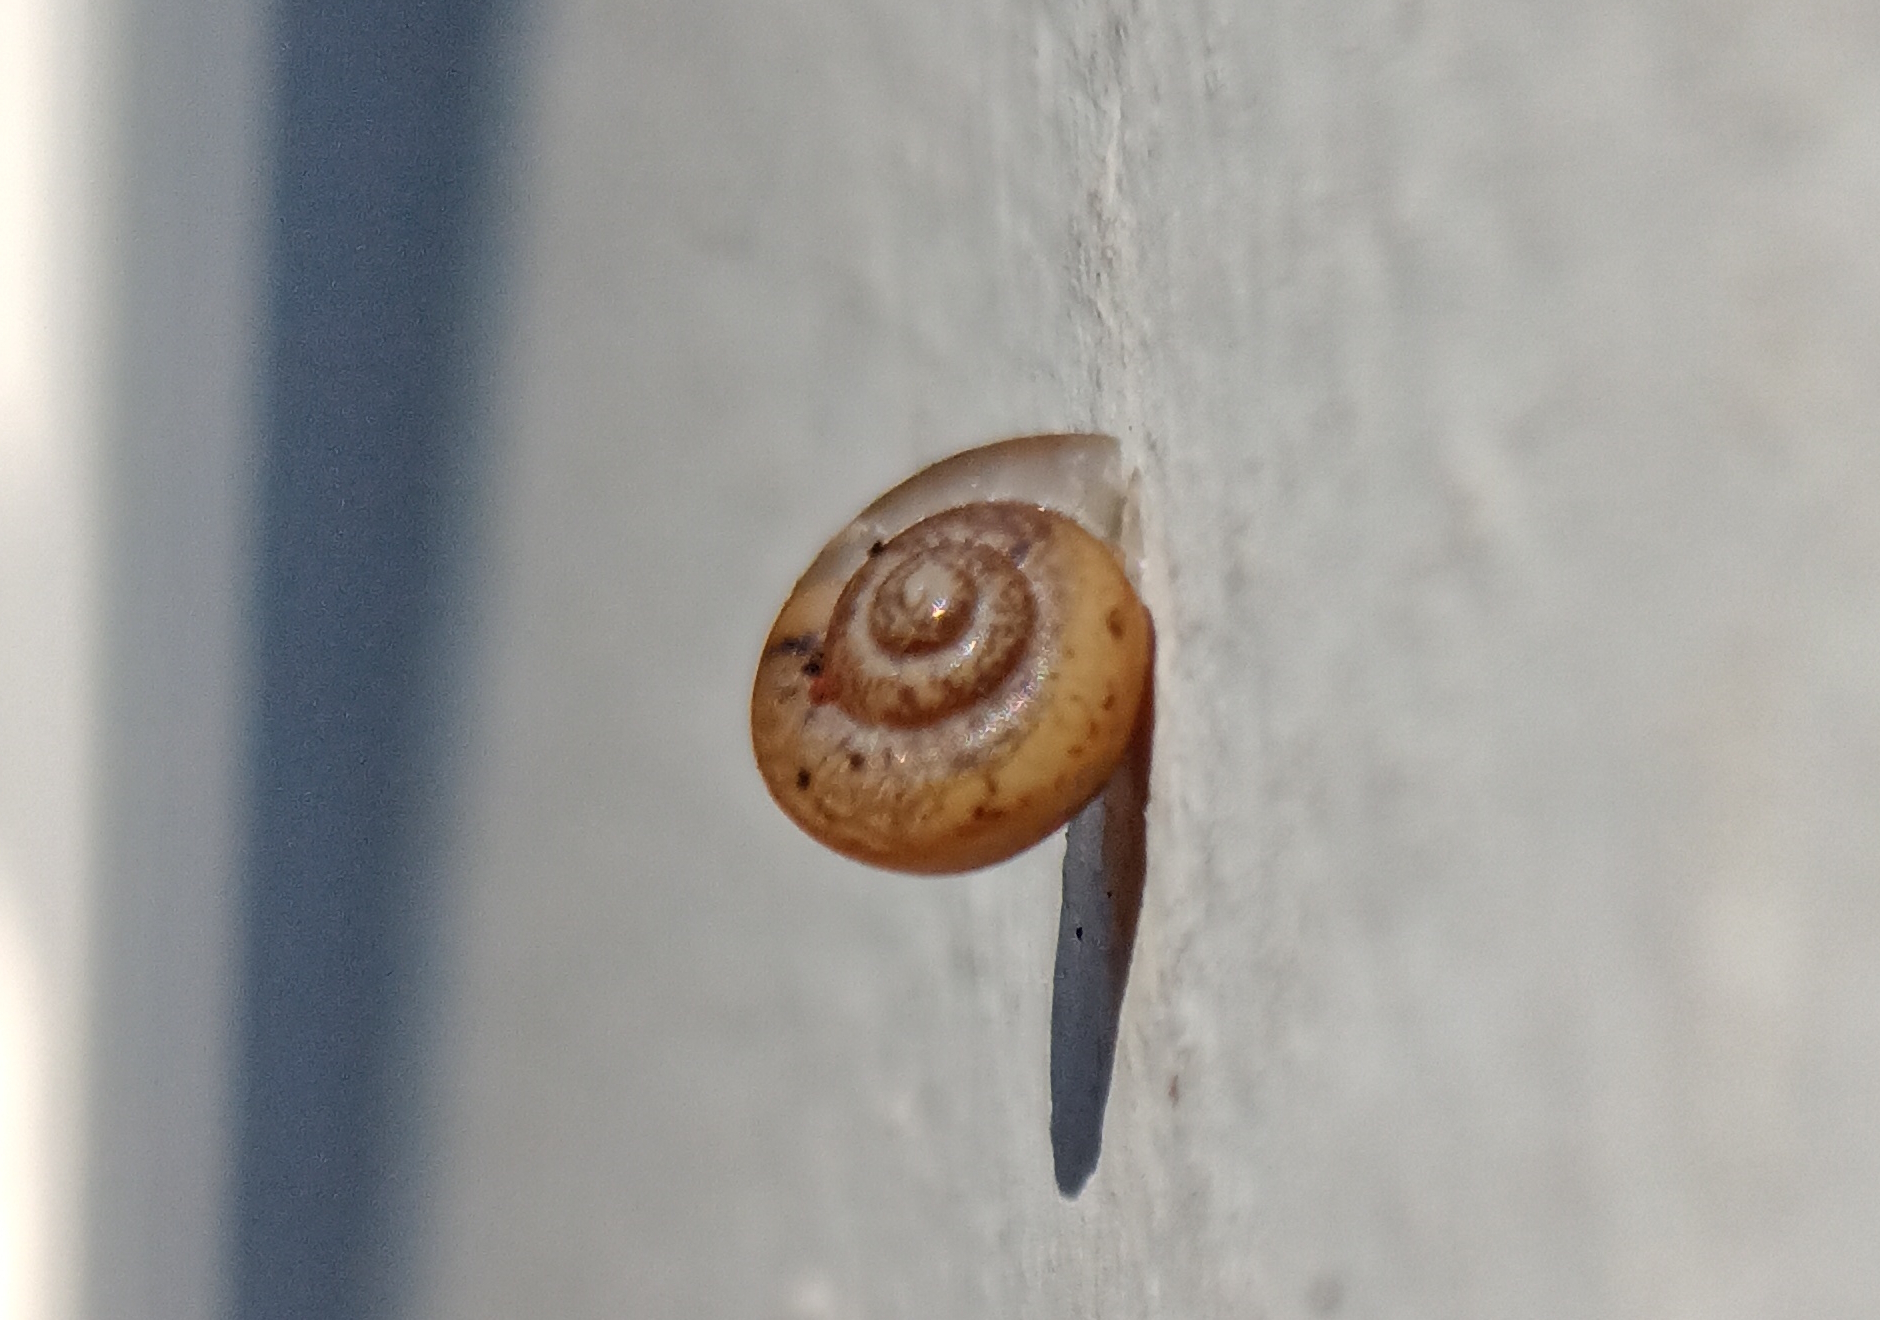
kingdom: Animalia
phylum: Mollusca
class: Gastropoda
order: Stylommatophora
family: Camaenidae
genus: Bradybaena
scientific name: Bradybaena similaris
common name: Asian trampsnail
